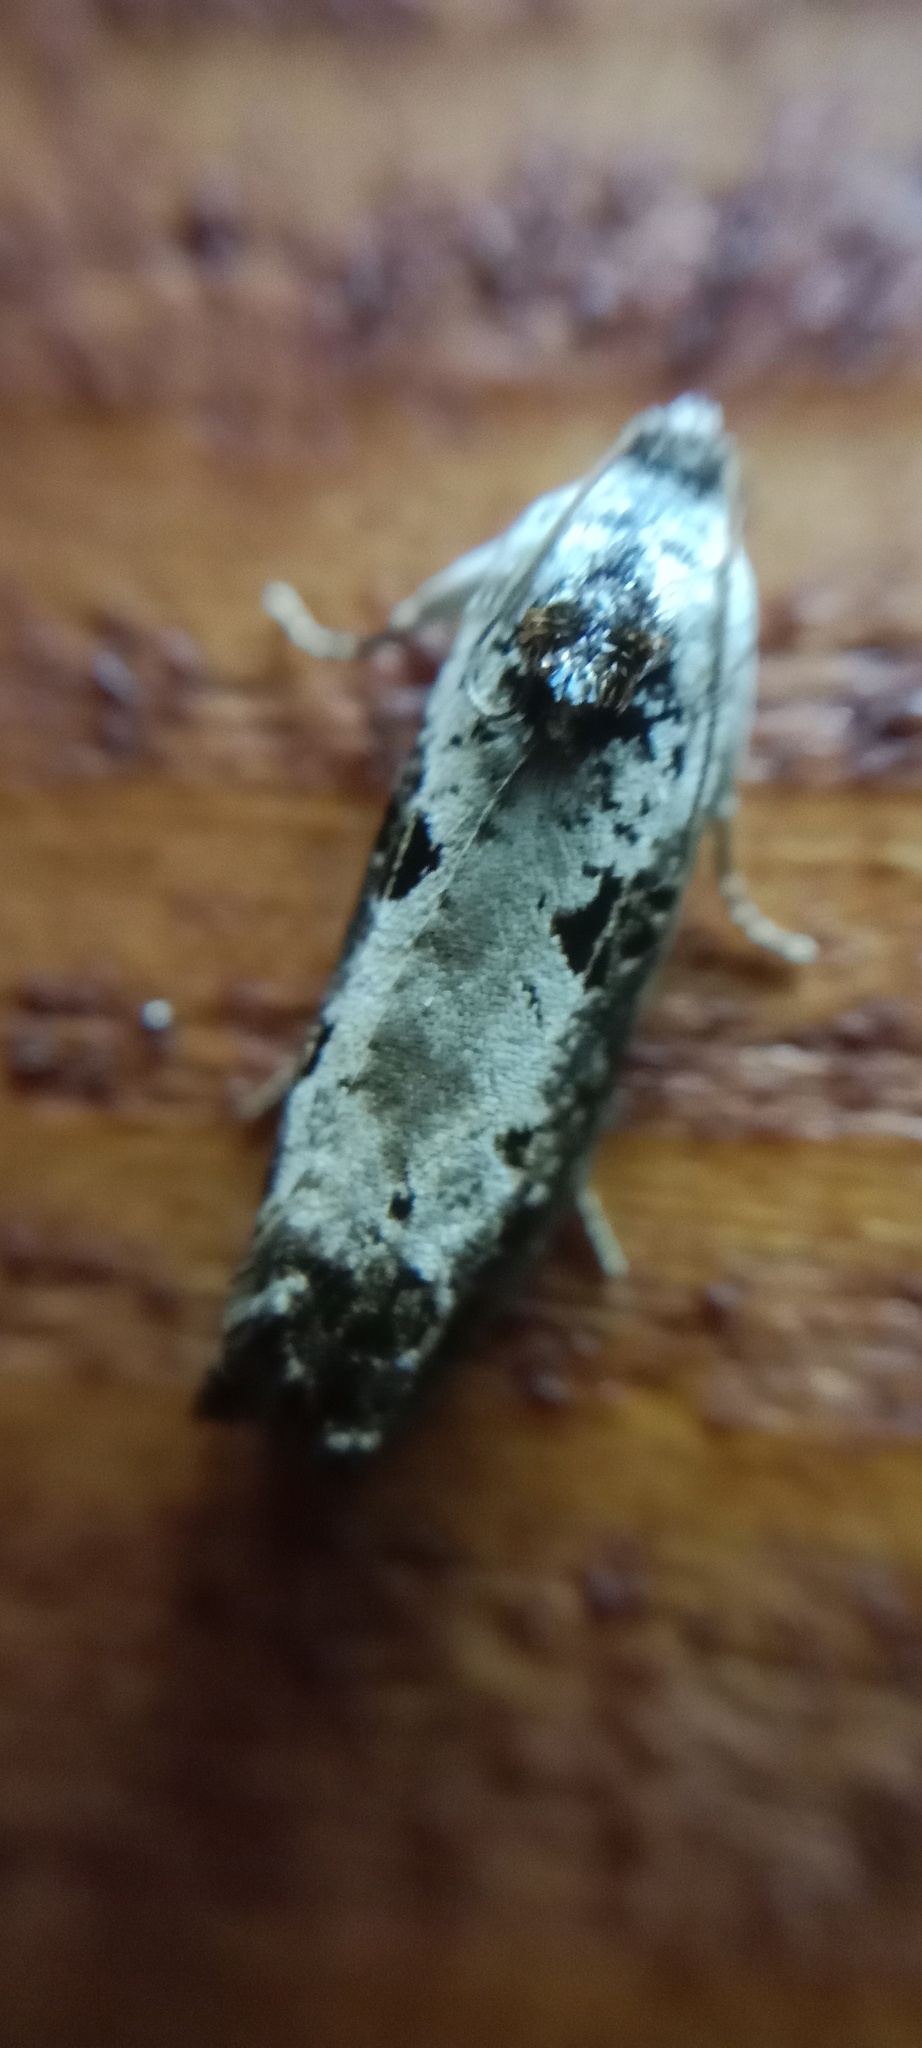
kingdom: Animalia
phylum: Arthropoda
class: Insecta
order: Lepidoptera
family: Tortricidae
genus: Hedya
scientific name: Hedya salicella
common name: Large tortricid moth
